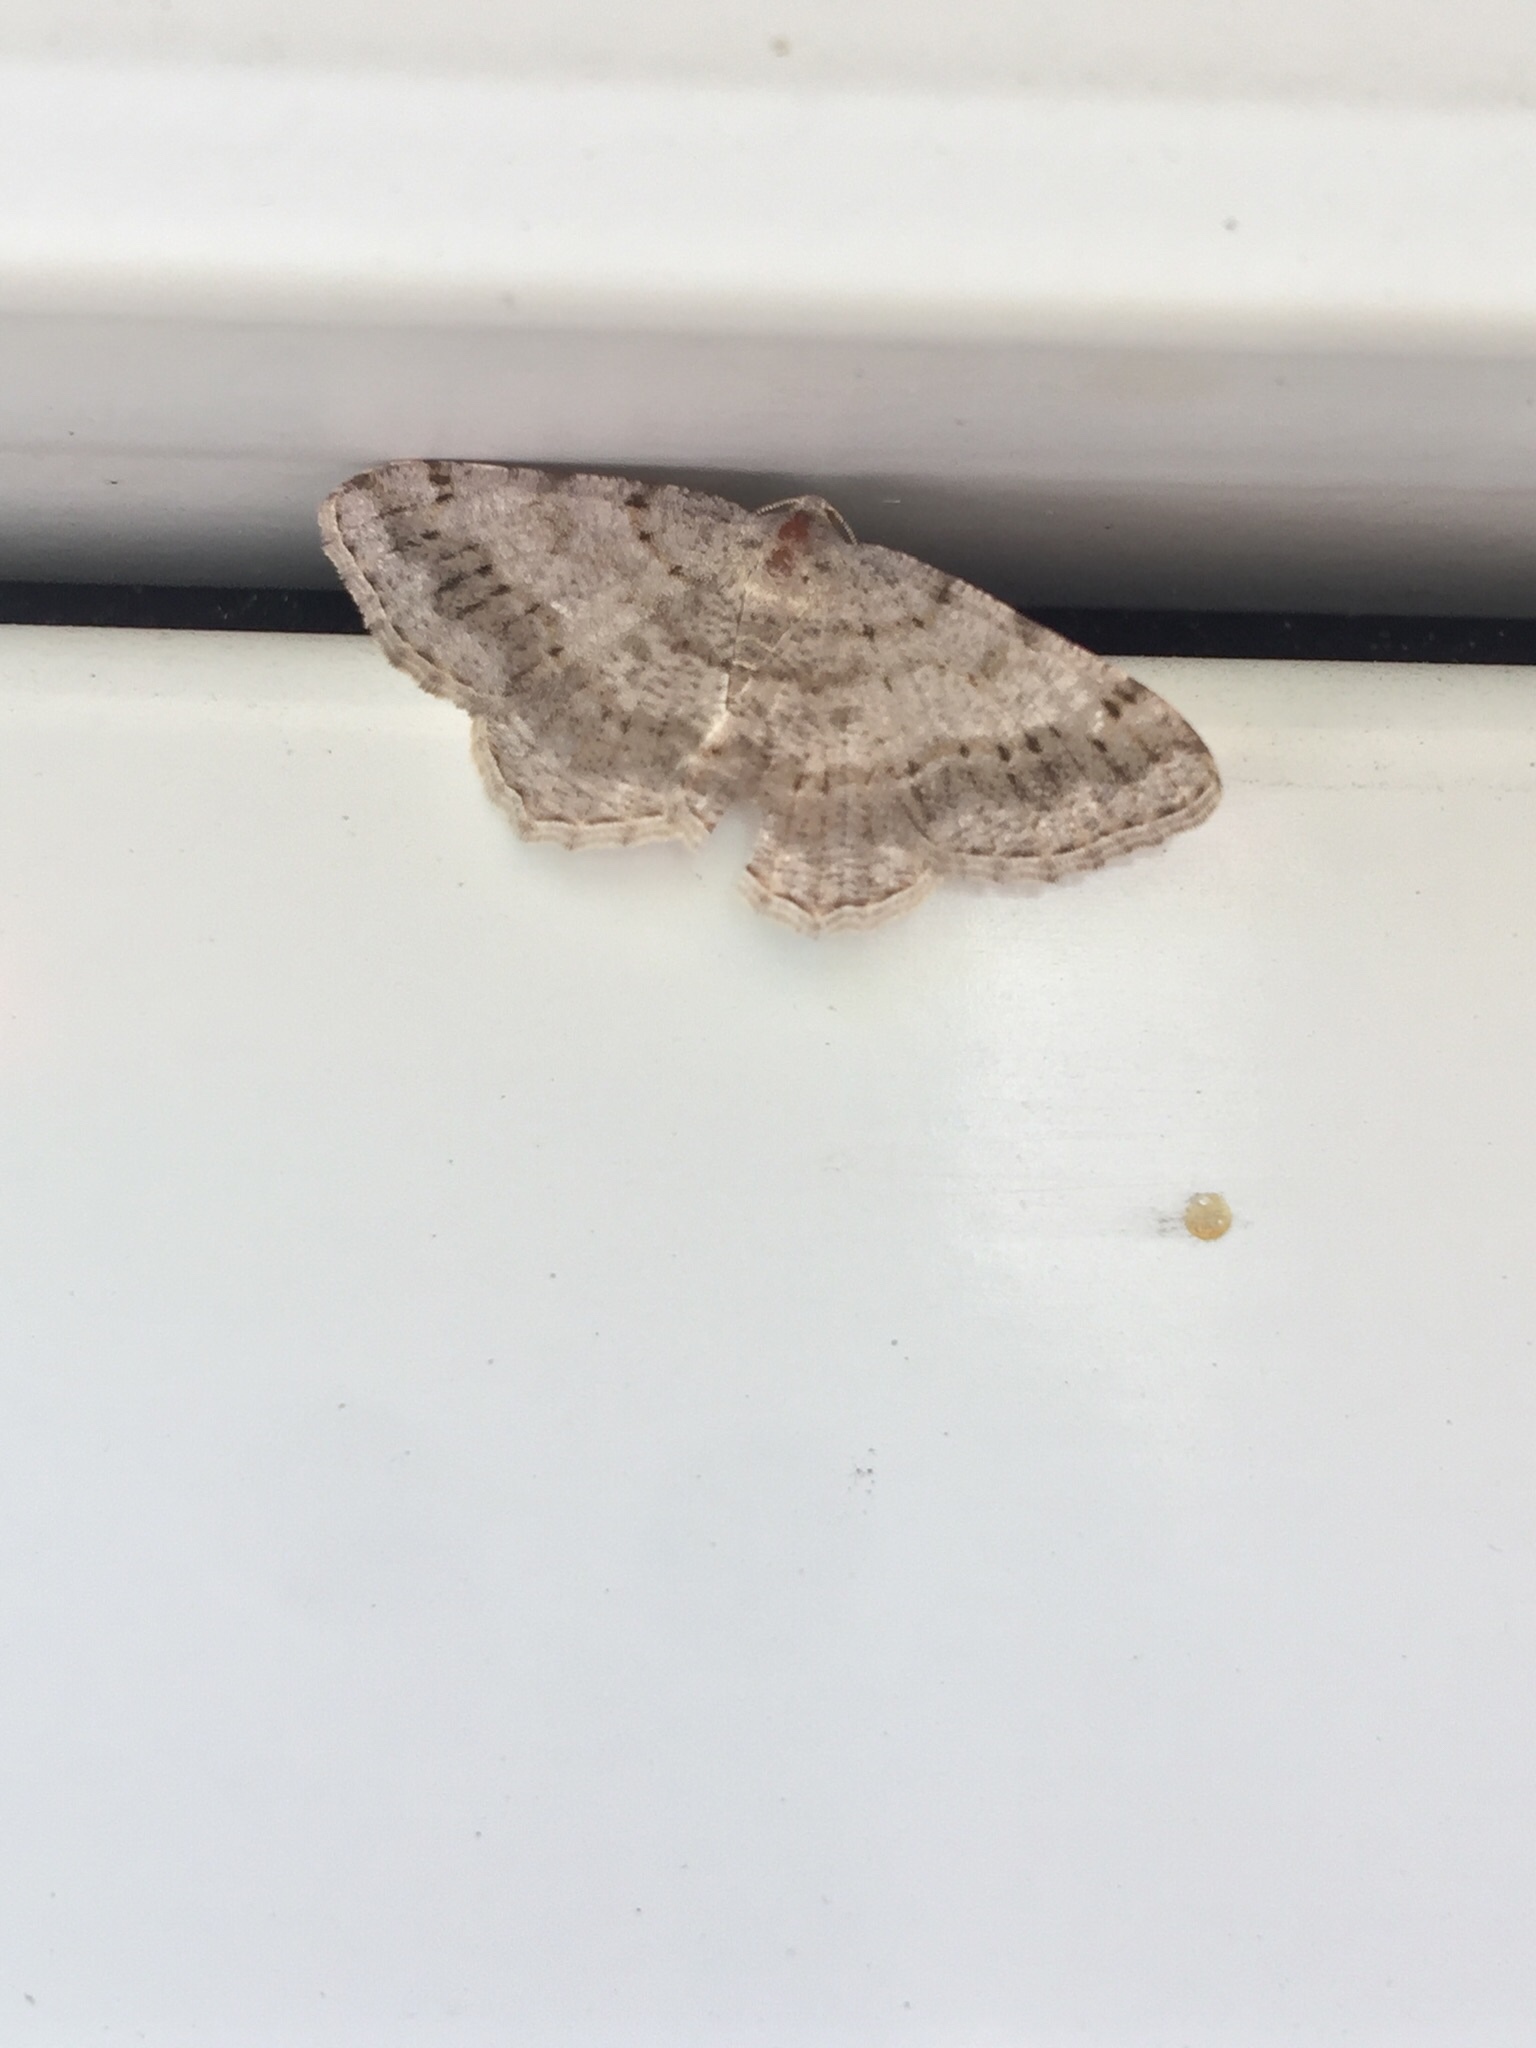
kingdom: Animalia
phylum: Arthropoda
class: Insecta
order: Lepidoptera
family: Geometridae
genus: Digrammia
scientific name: Digrammia ocellinata
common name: Faint-spotted angle
